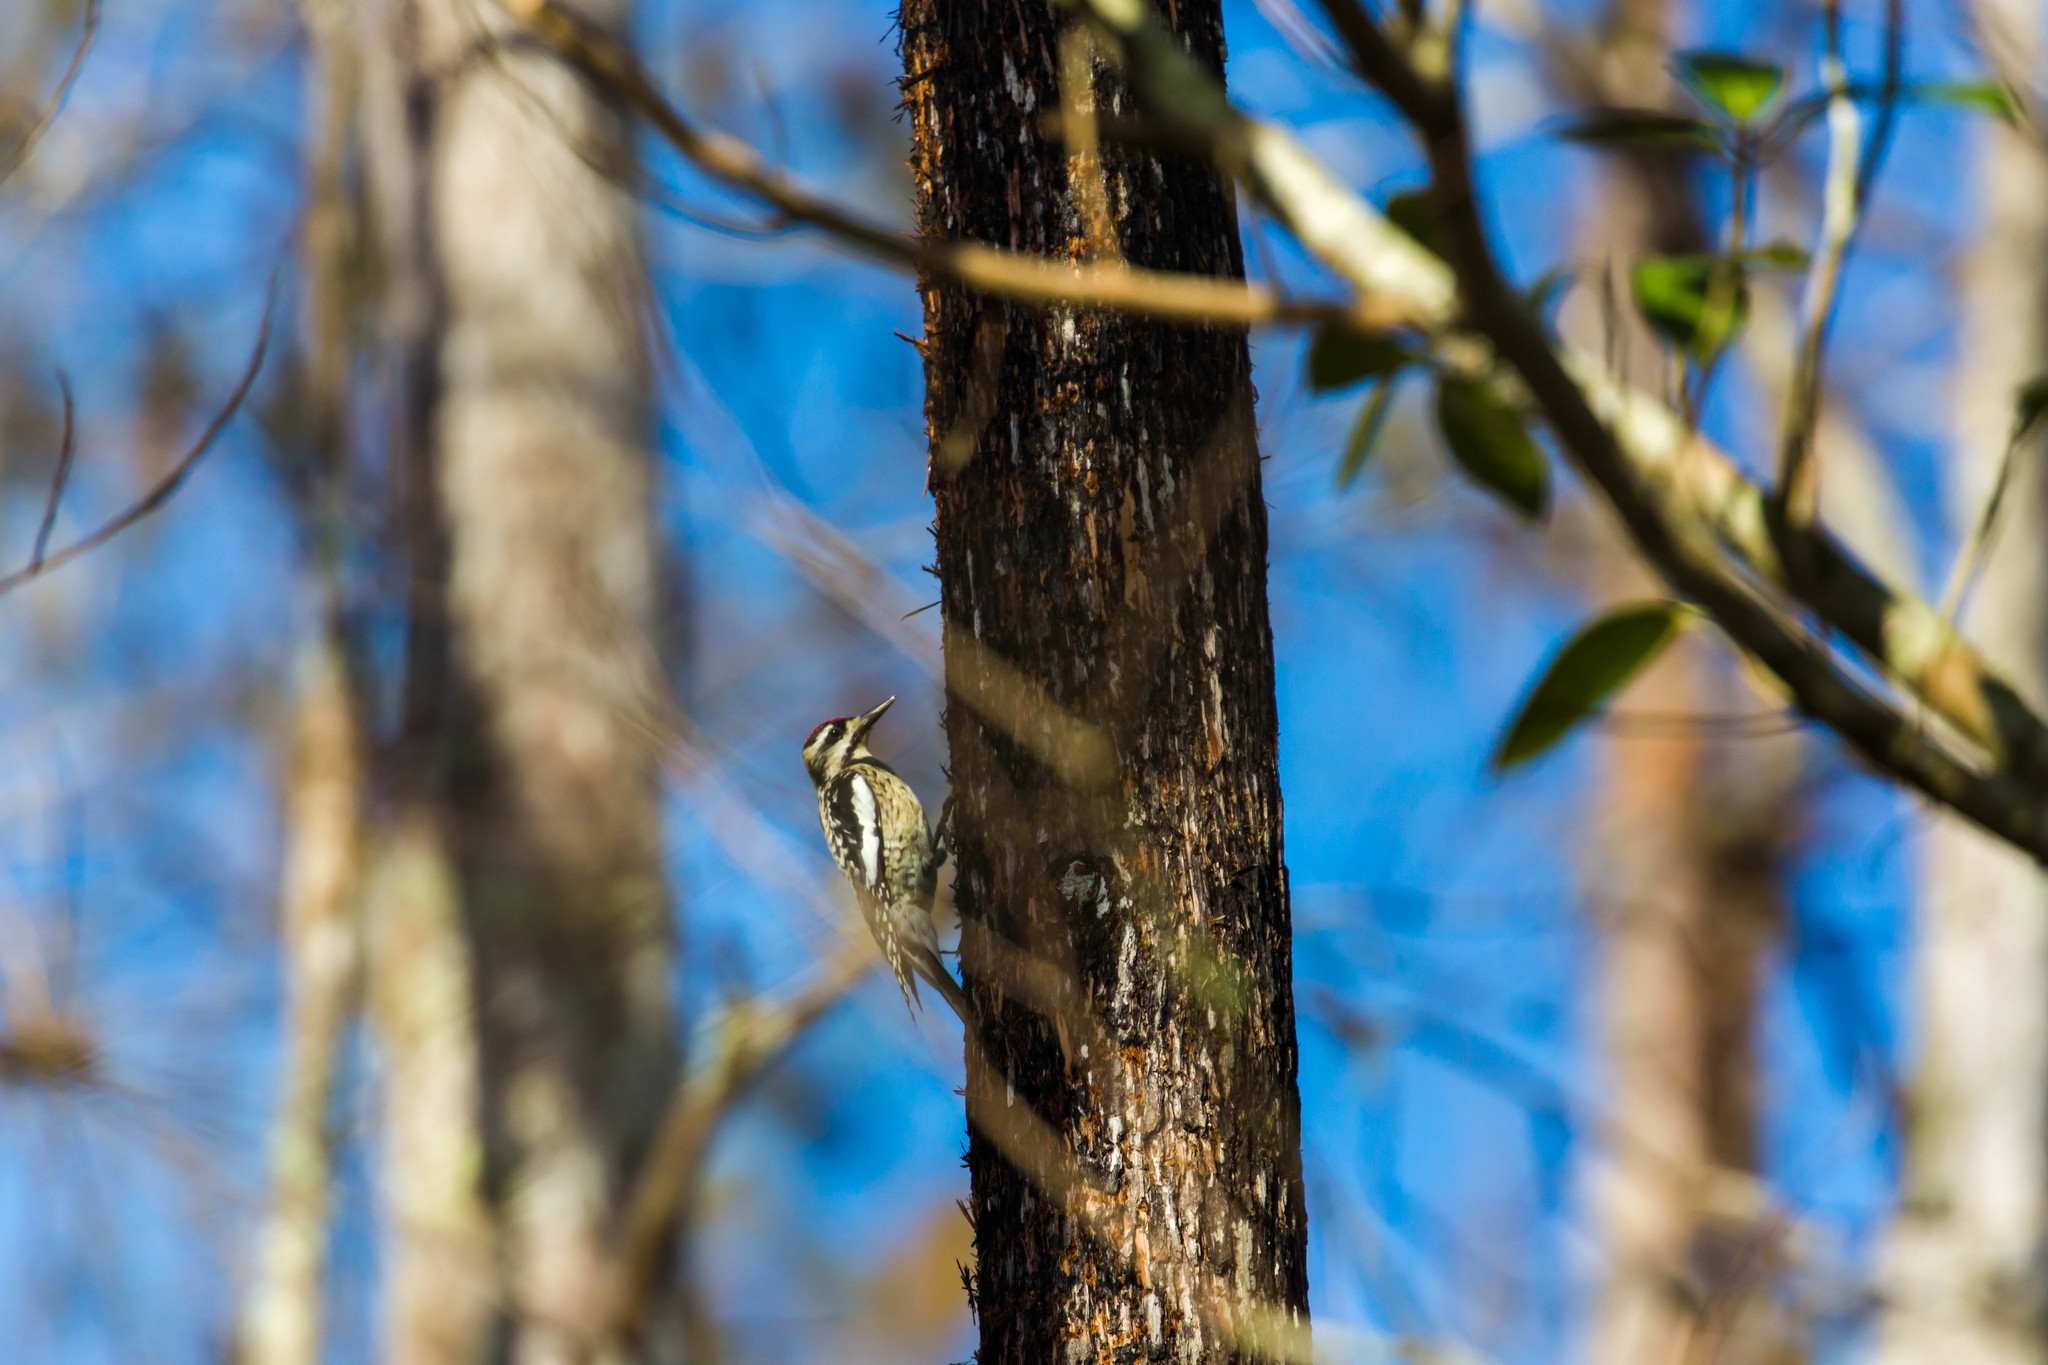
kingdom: Animalia
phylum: Chordata
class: Aves
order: Piciformes
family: Picidae
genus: Sphyrapicus
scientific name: Sphyrapicus varius
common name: Yellow-bellied sapsucker
